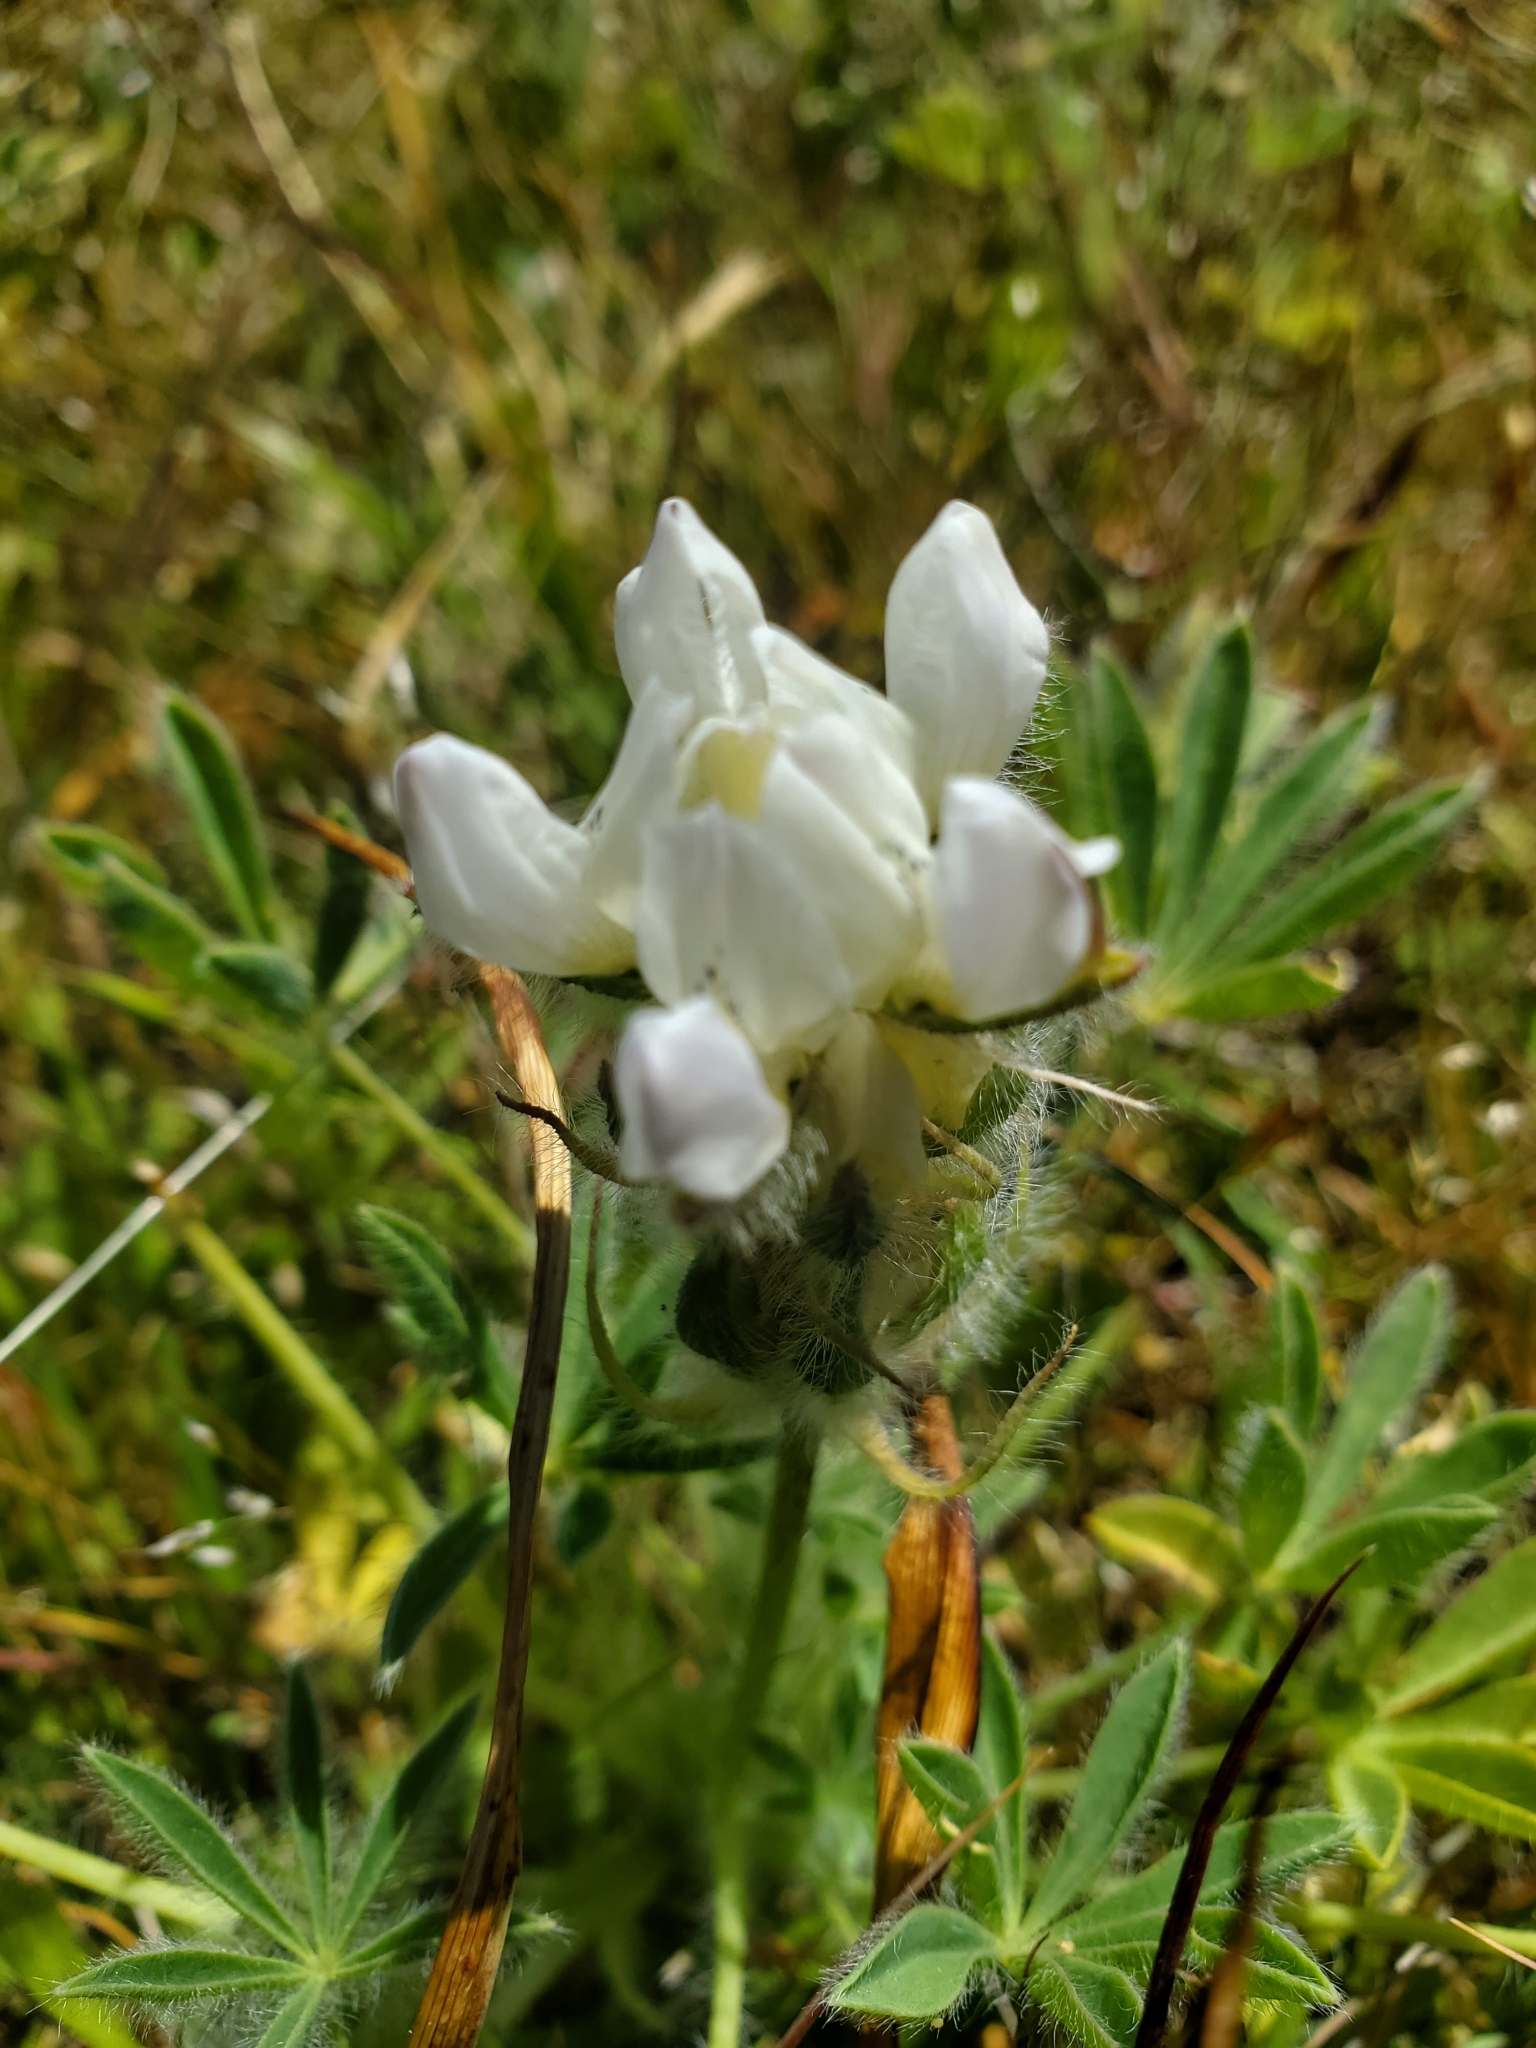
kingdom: Plantae
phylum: Tracheophyta
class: Magnoliopsida
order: Fabales
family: Fabaceae
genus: Lupinus
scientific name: Lupinus densiflorus
